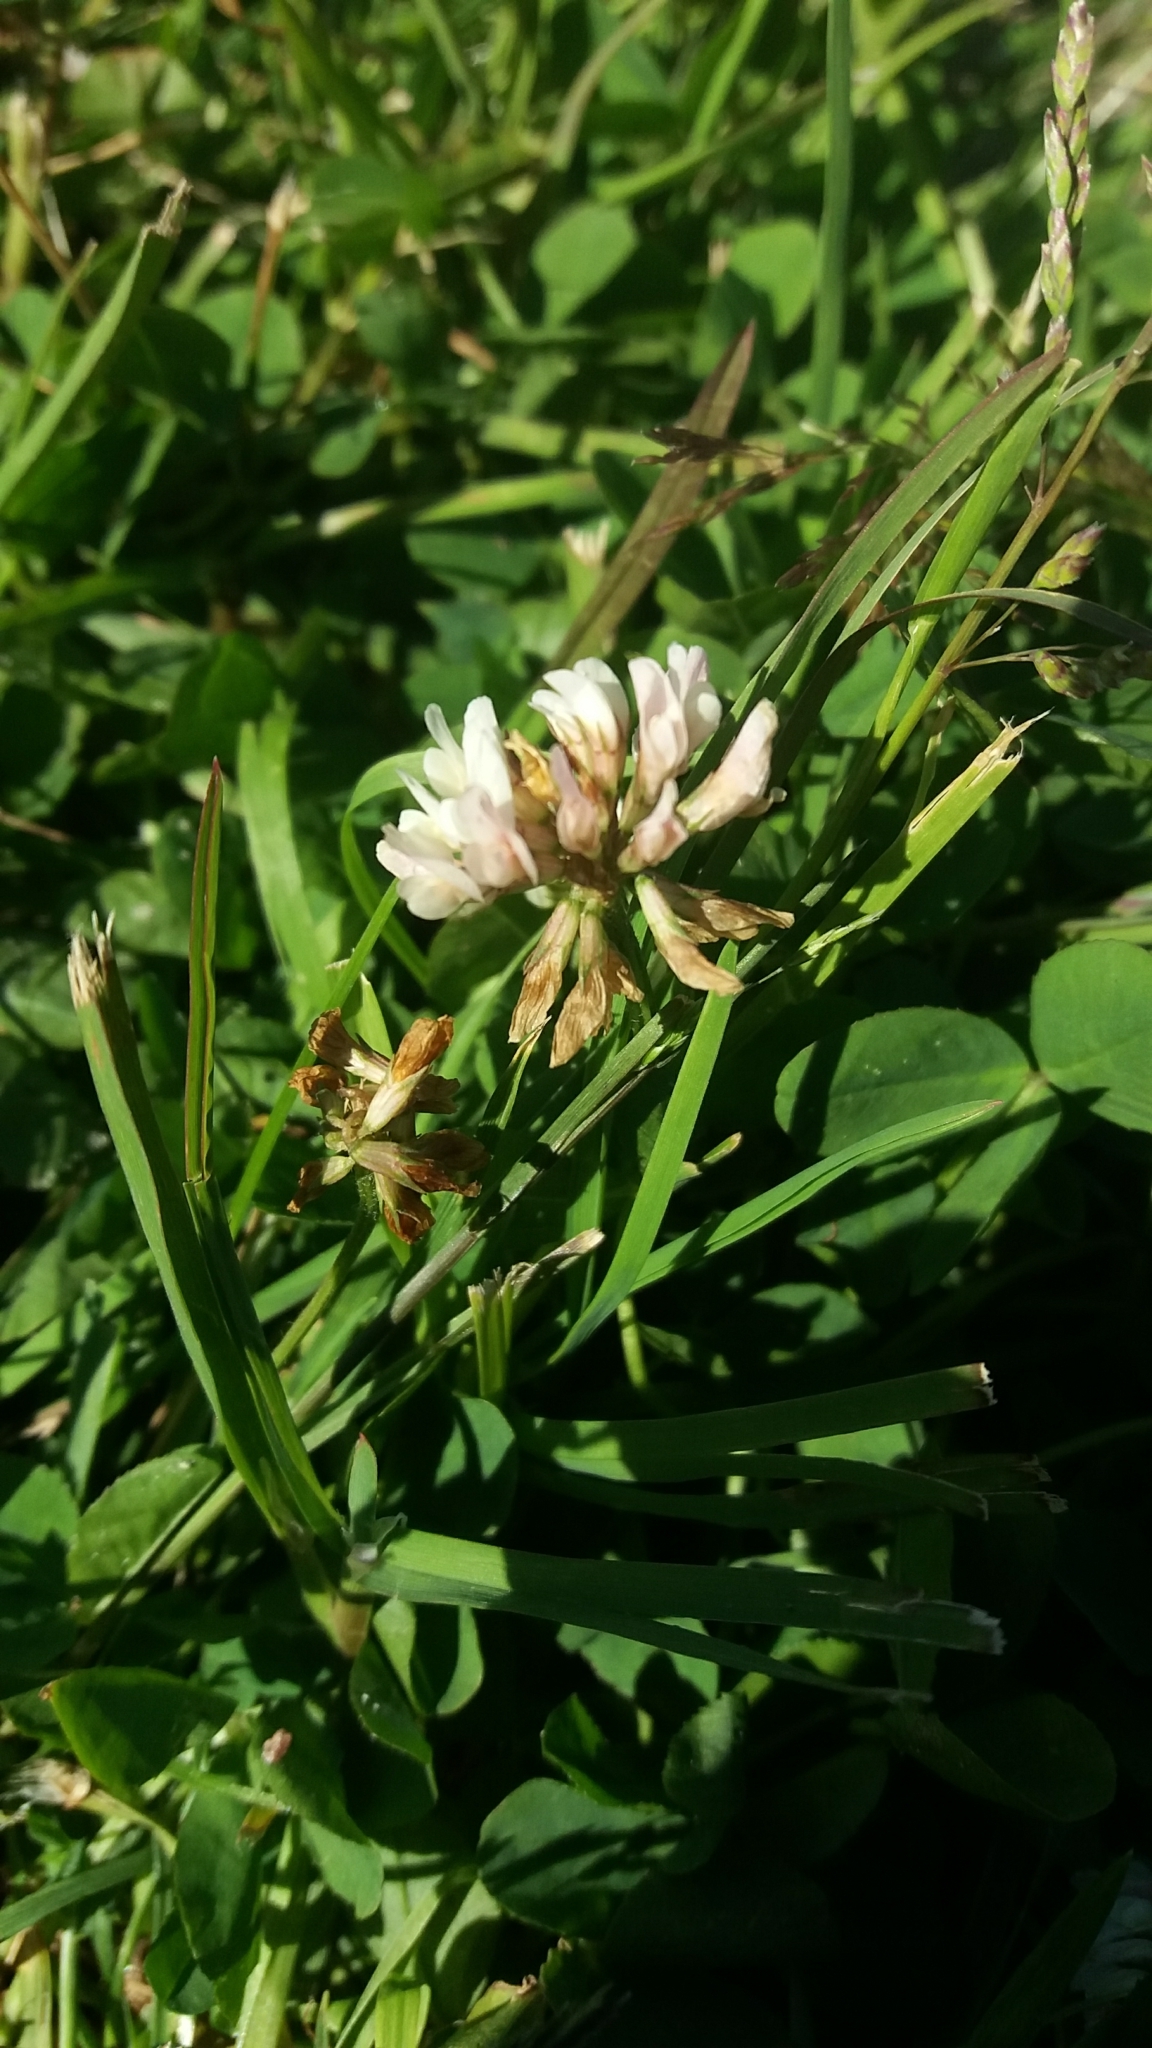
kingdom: Plantae
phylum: Tracheophyta
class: Magnoliopsida
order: Fabales
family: Fabaceae
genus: Trifolium
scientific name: Trifolium repens
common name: White clover
